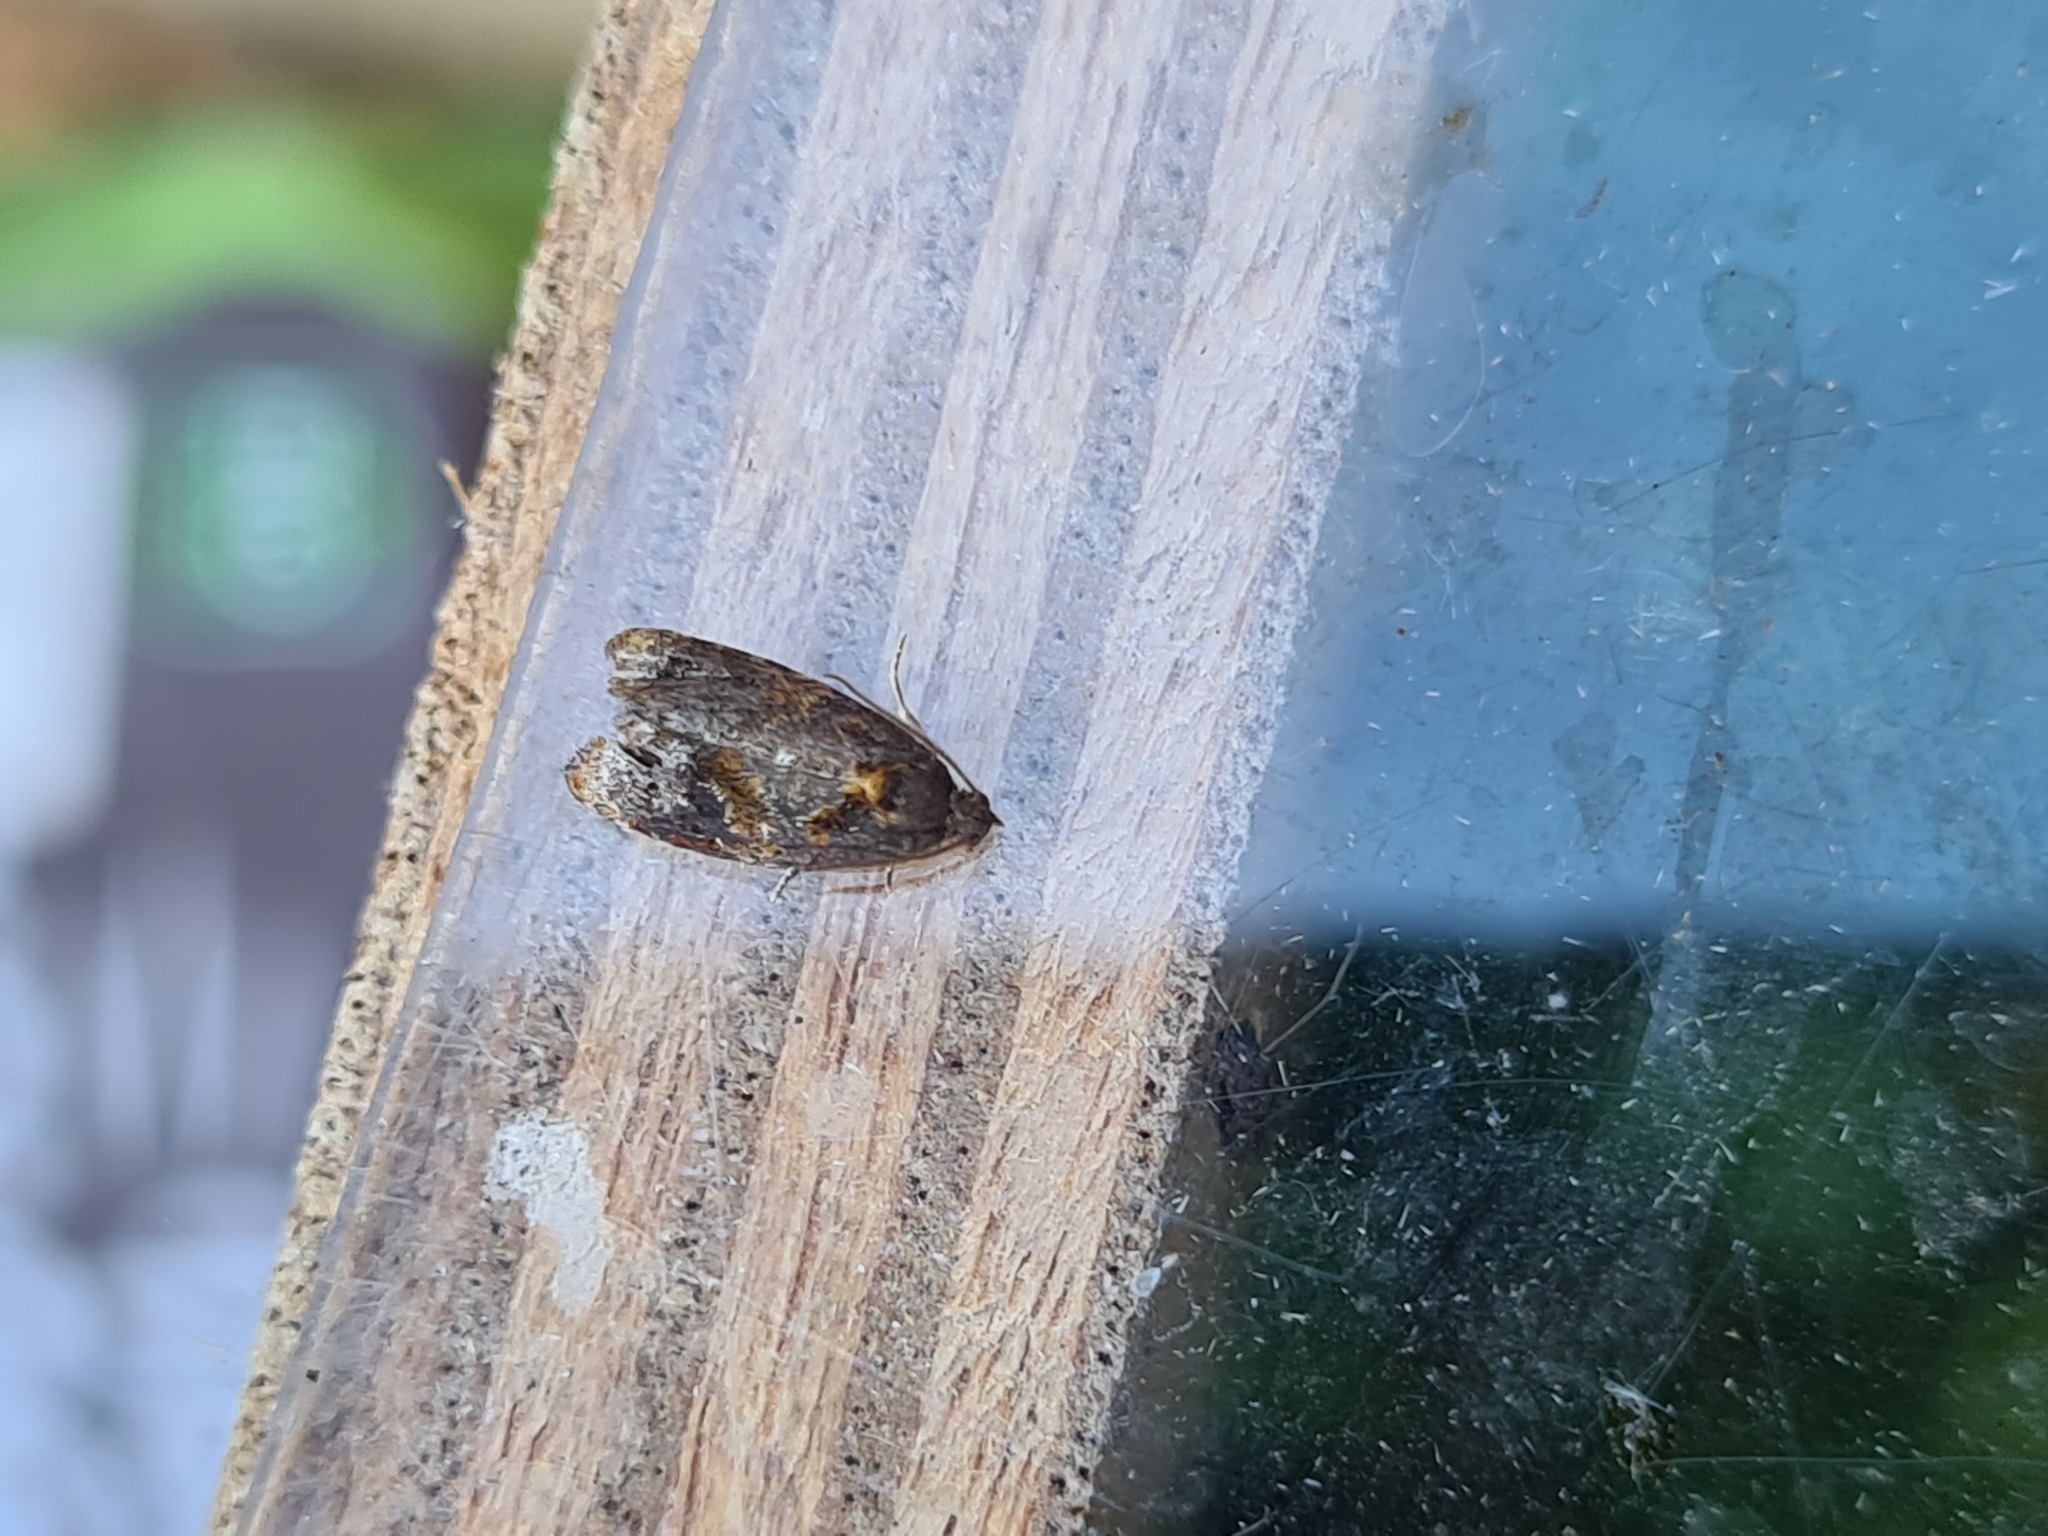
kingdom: Animalia
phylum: Arthropoda
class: Insecta
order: Lepidoptera
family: Tortricidae
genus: Ditula
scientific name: Ditula angustiorana
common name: Red-barred tortrix
